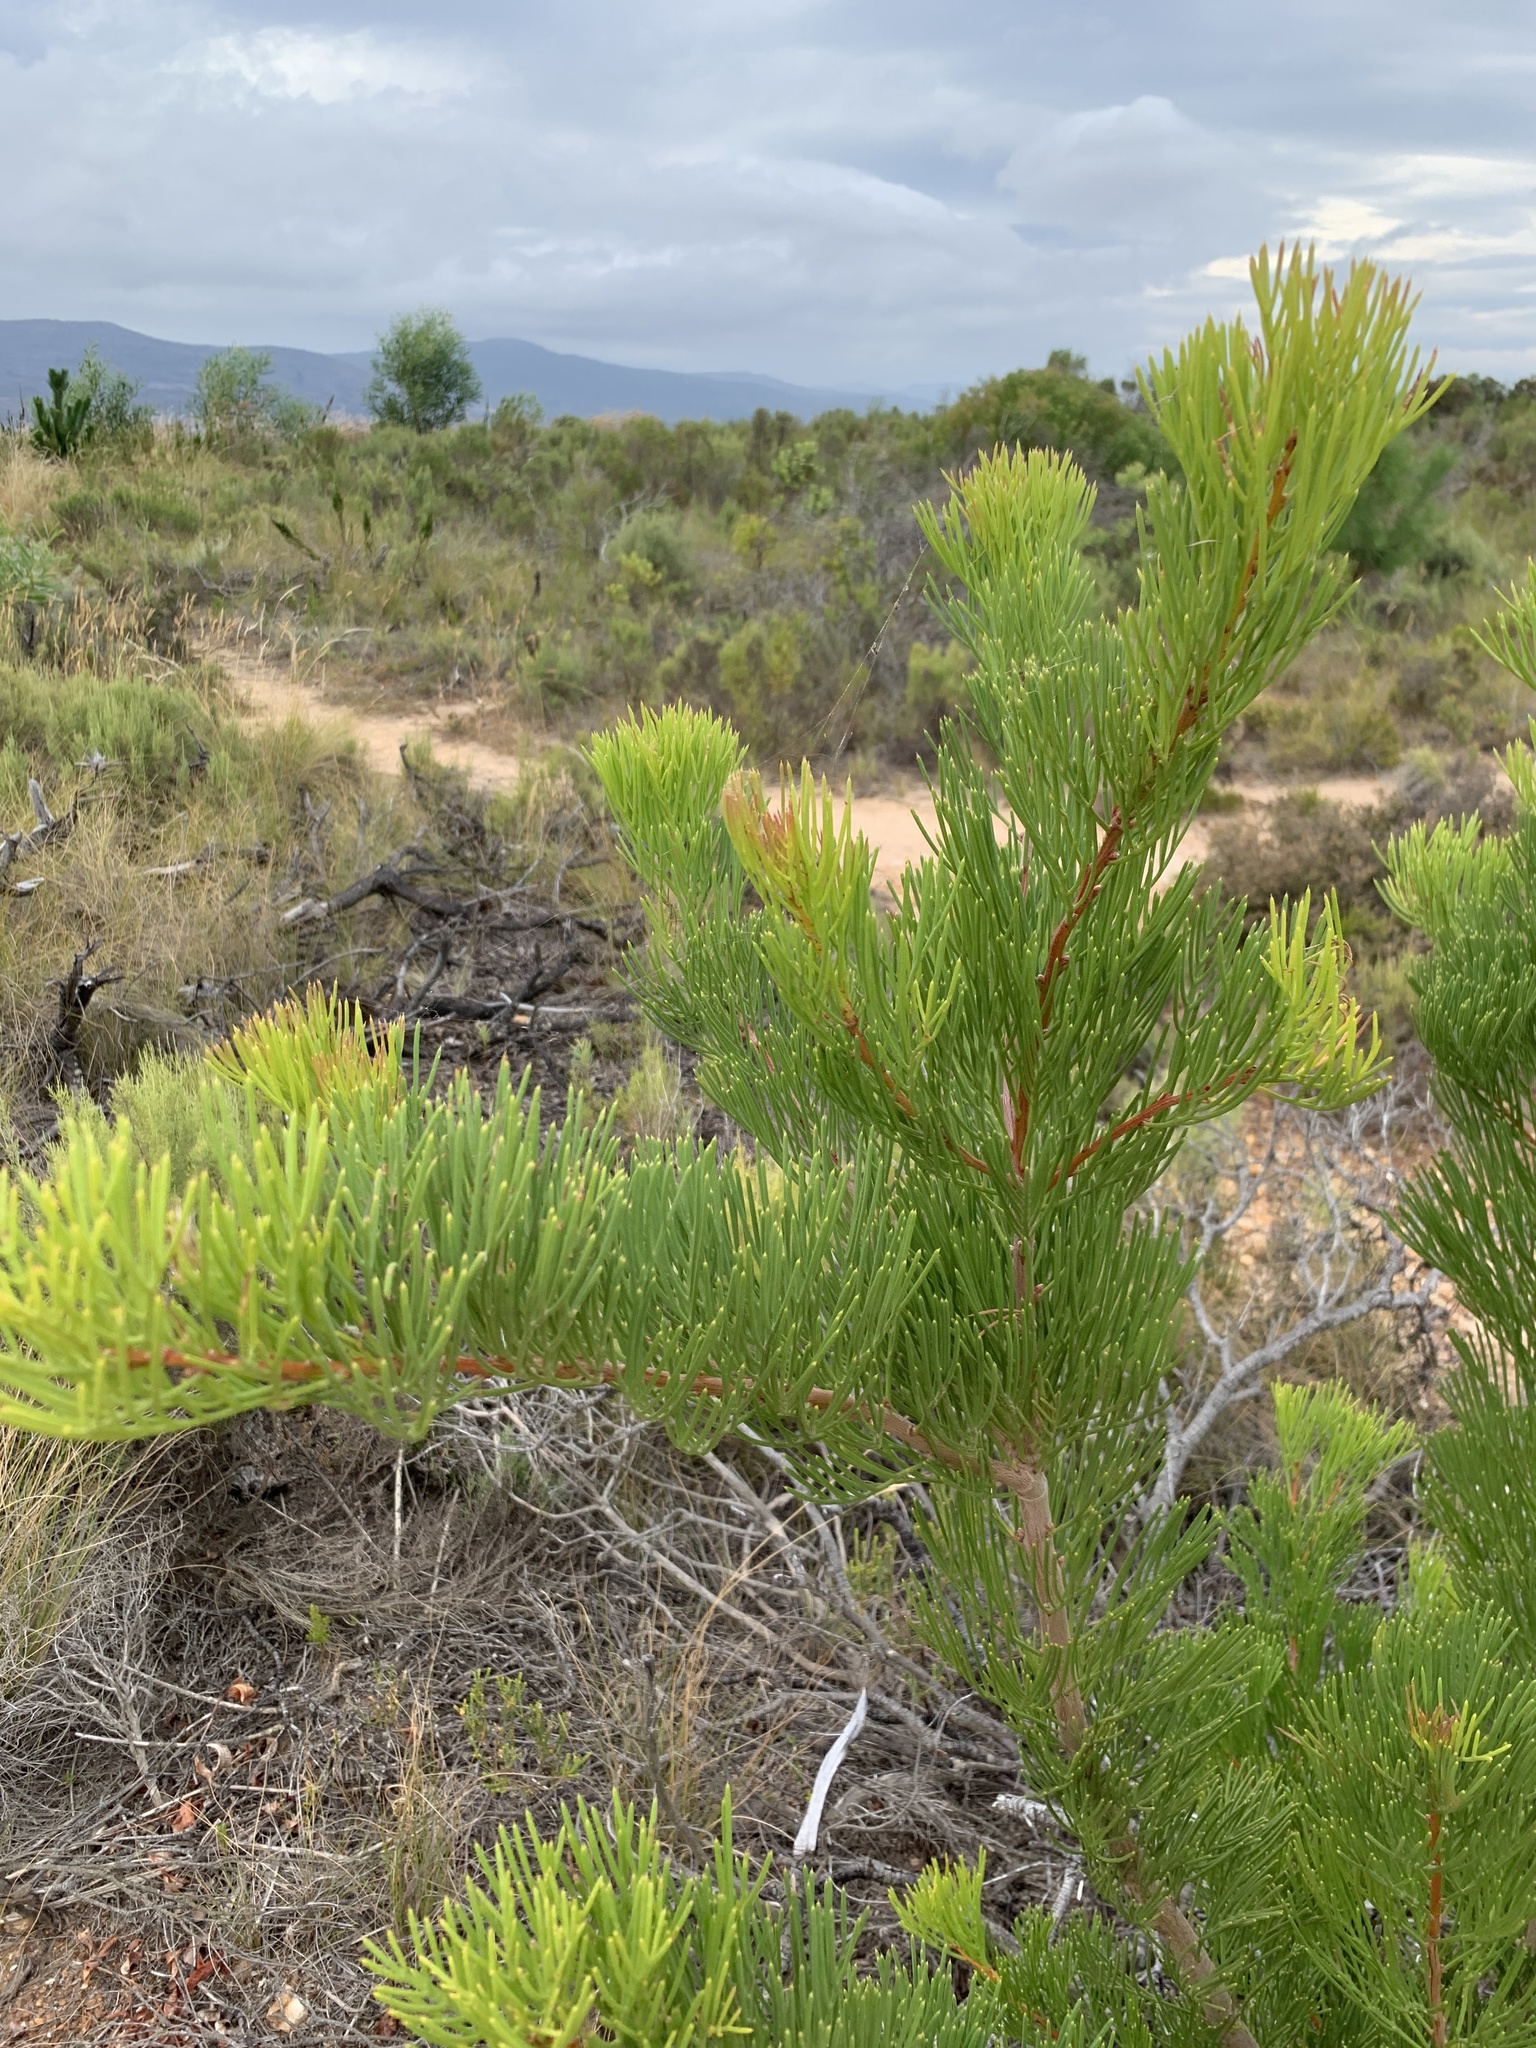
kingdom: Plantae
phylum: Tracheophyta
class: Magnoliopsida
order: Proteales
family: Proteaceae
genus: Hakea
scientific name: Hakea drupacea
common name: Sweet hakea
